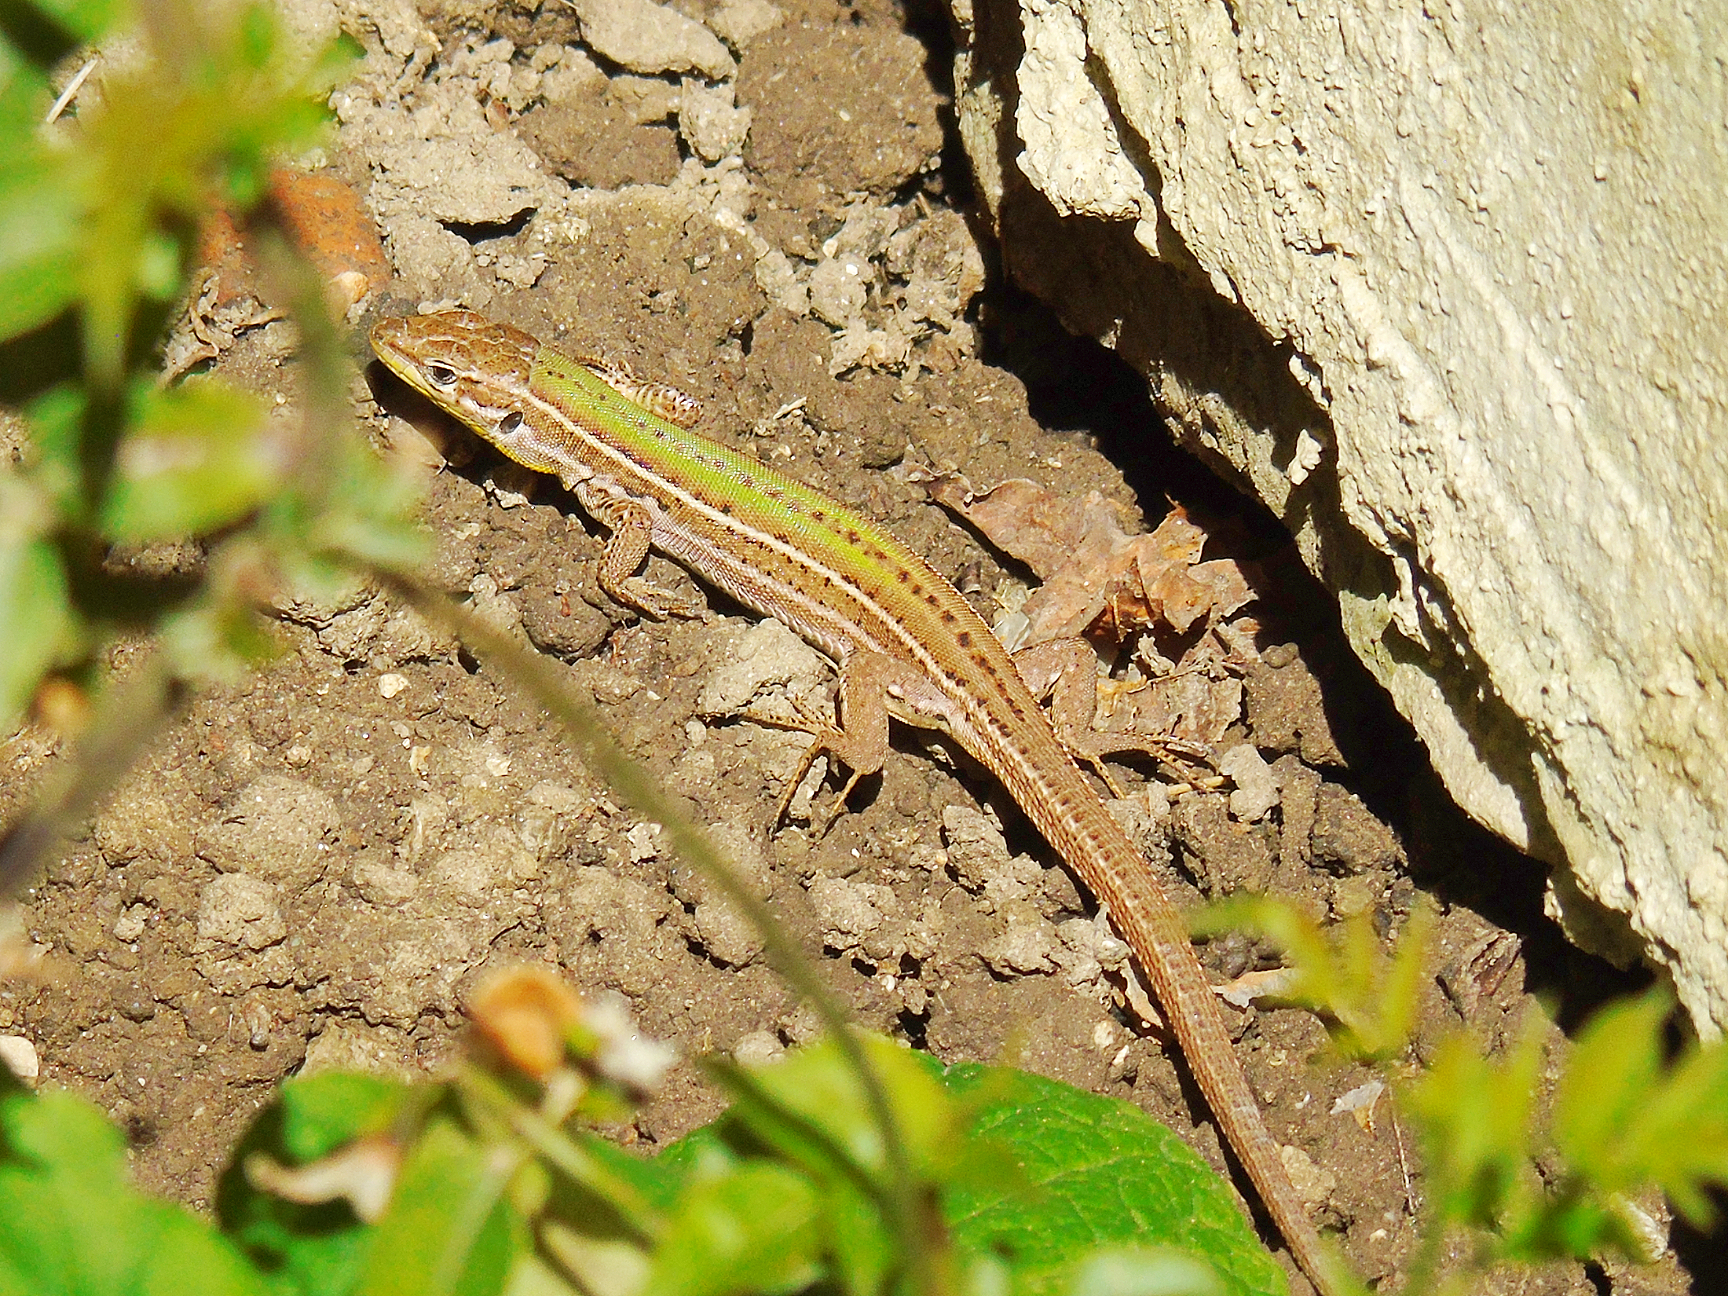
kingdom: Animalia
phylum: Chordata
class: Squamata
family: Lacertidae
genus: Podarcis
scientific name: Podarcis melisellensis
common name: Dalmatian wall lizard
